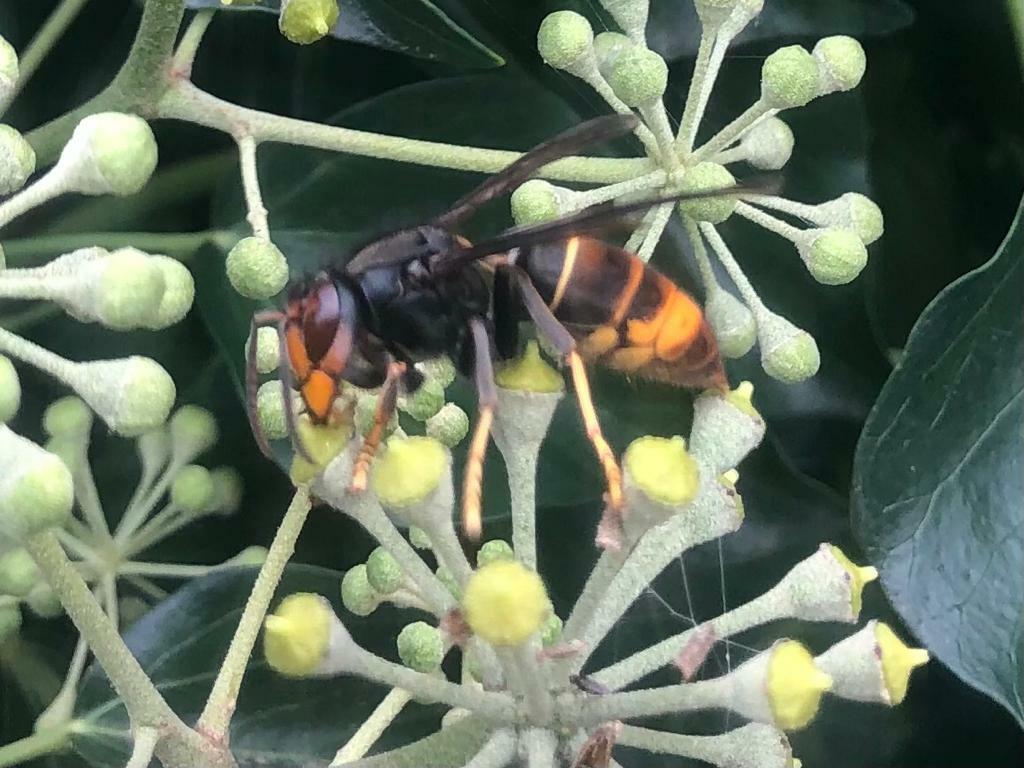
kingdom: Animalia
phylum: Arthropoda
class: Insecta
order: Hymenoptera
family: Vespidae
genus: Vespa
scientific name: Vespa velutina
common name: Asian hornet
